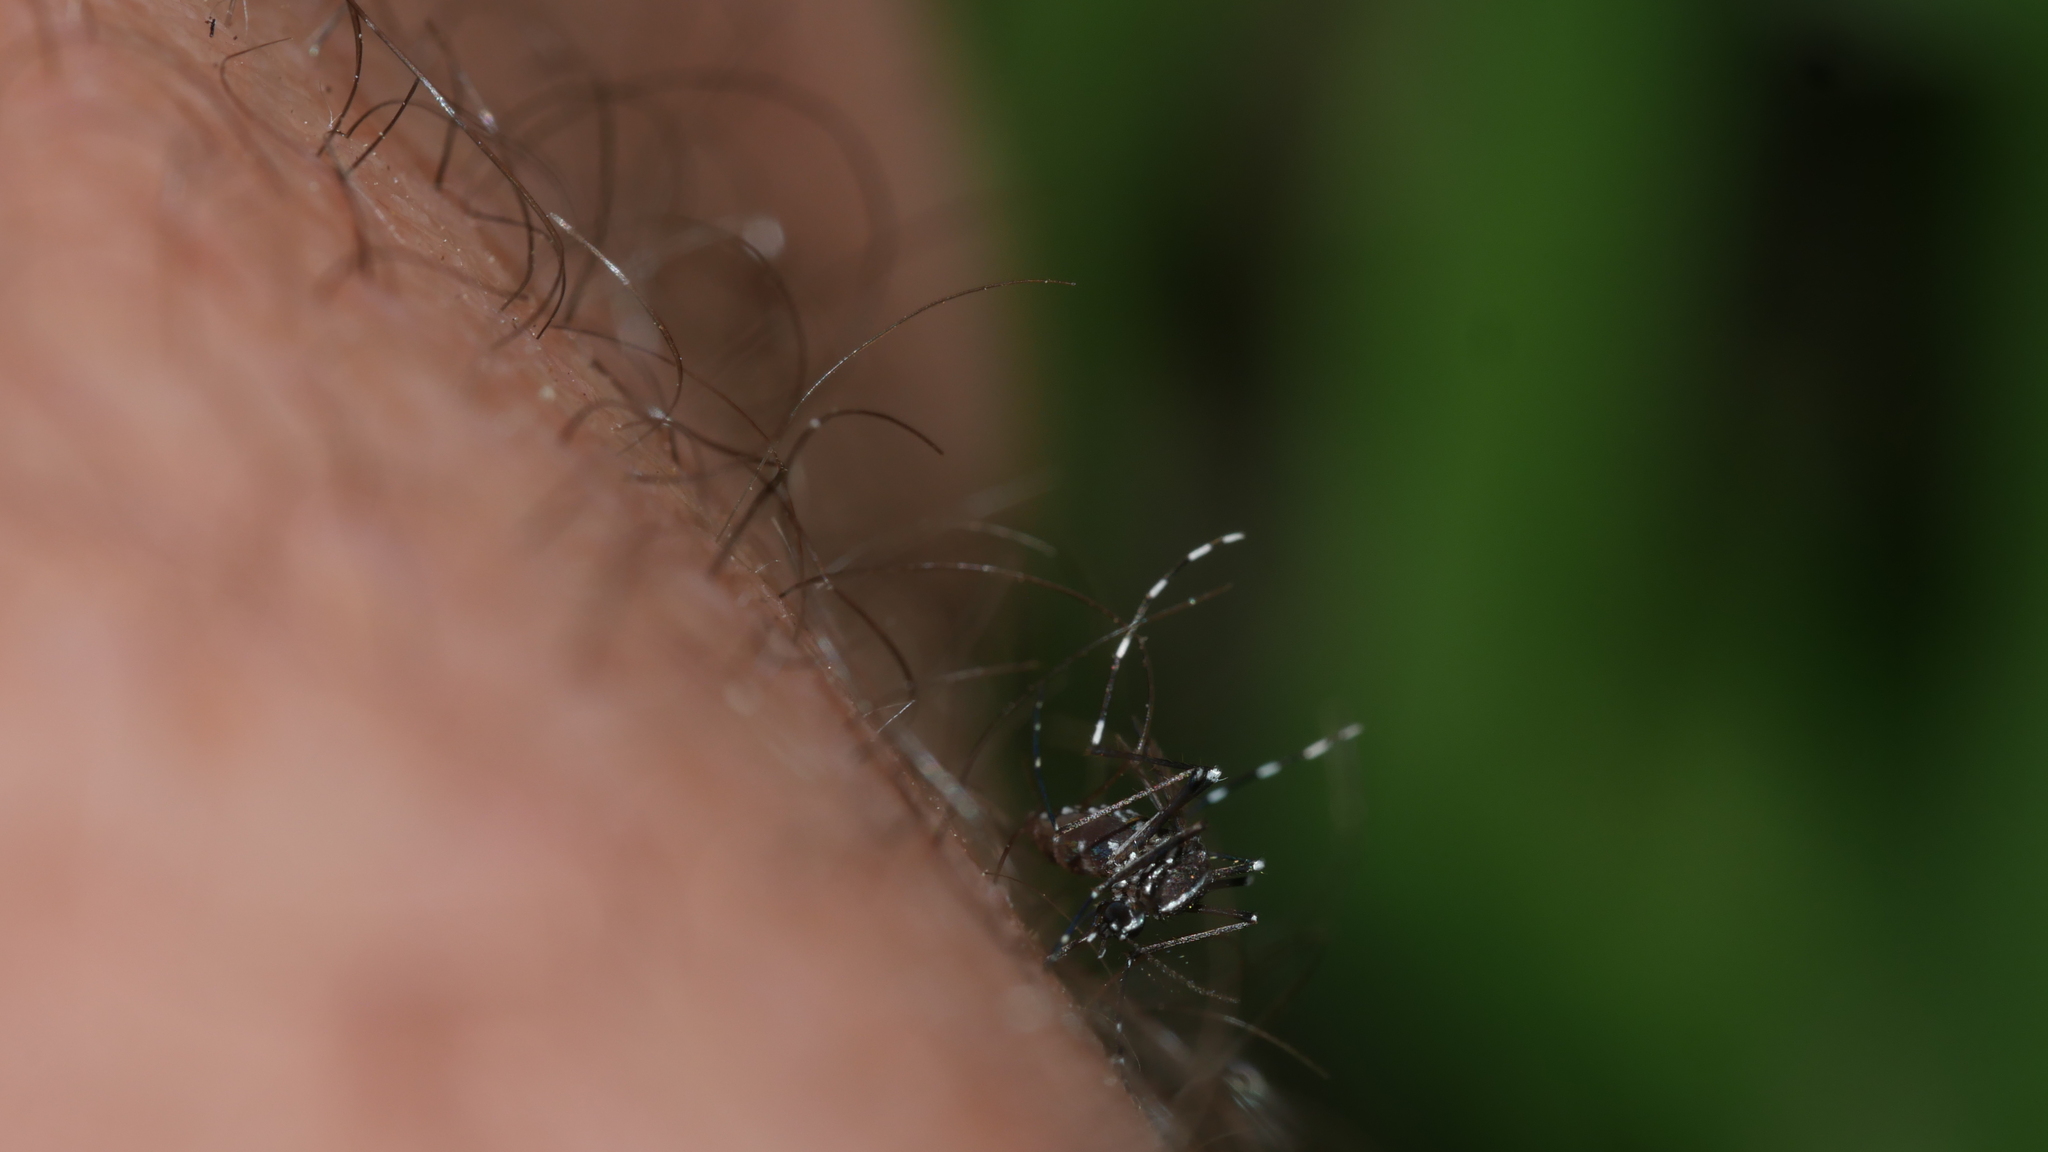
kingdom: Animalia
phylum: Arthropoda
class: Insecta
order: Diptera
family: Culicidae
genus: Aedes
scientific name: Aedes albopictus
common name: Tiger mosquito
